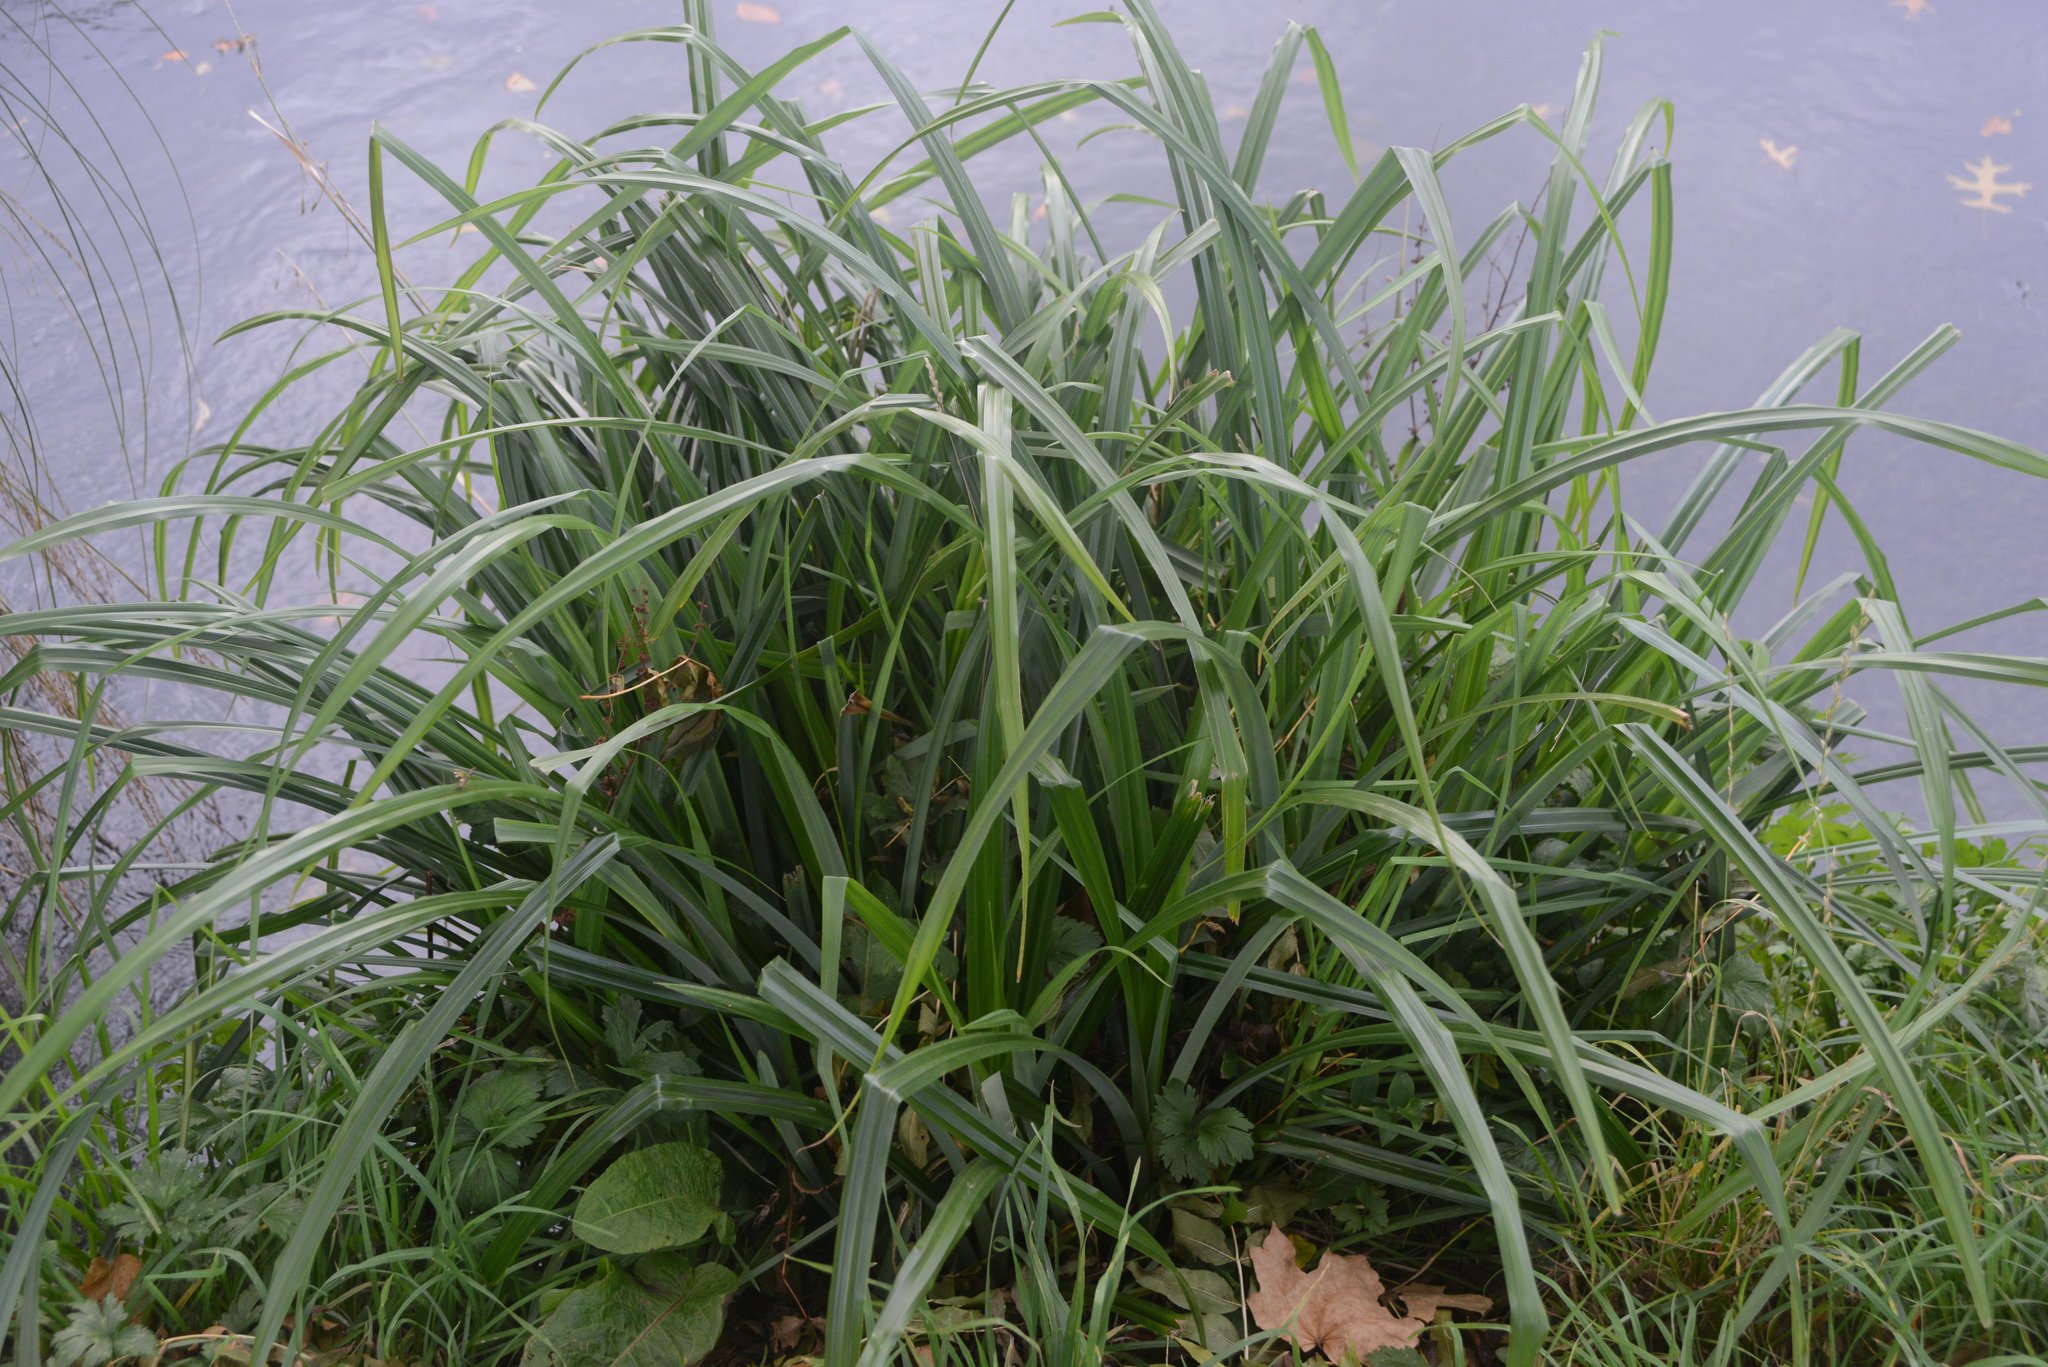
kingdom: Plantae
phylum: Tracheophyta
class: Liliopsida
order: Poales
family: Cyperaceae
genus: Carex
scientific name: Carex pendula
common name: Pendulous sedge
